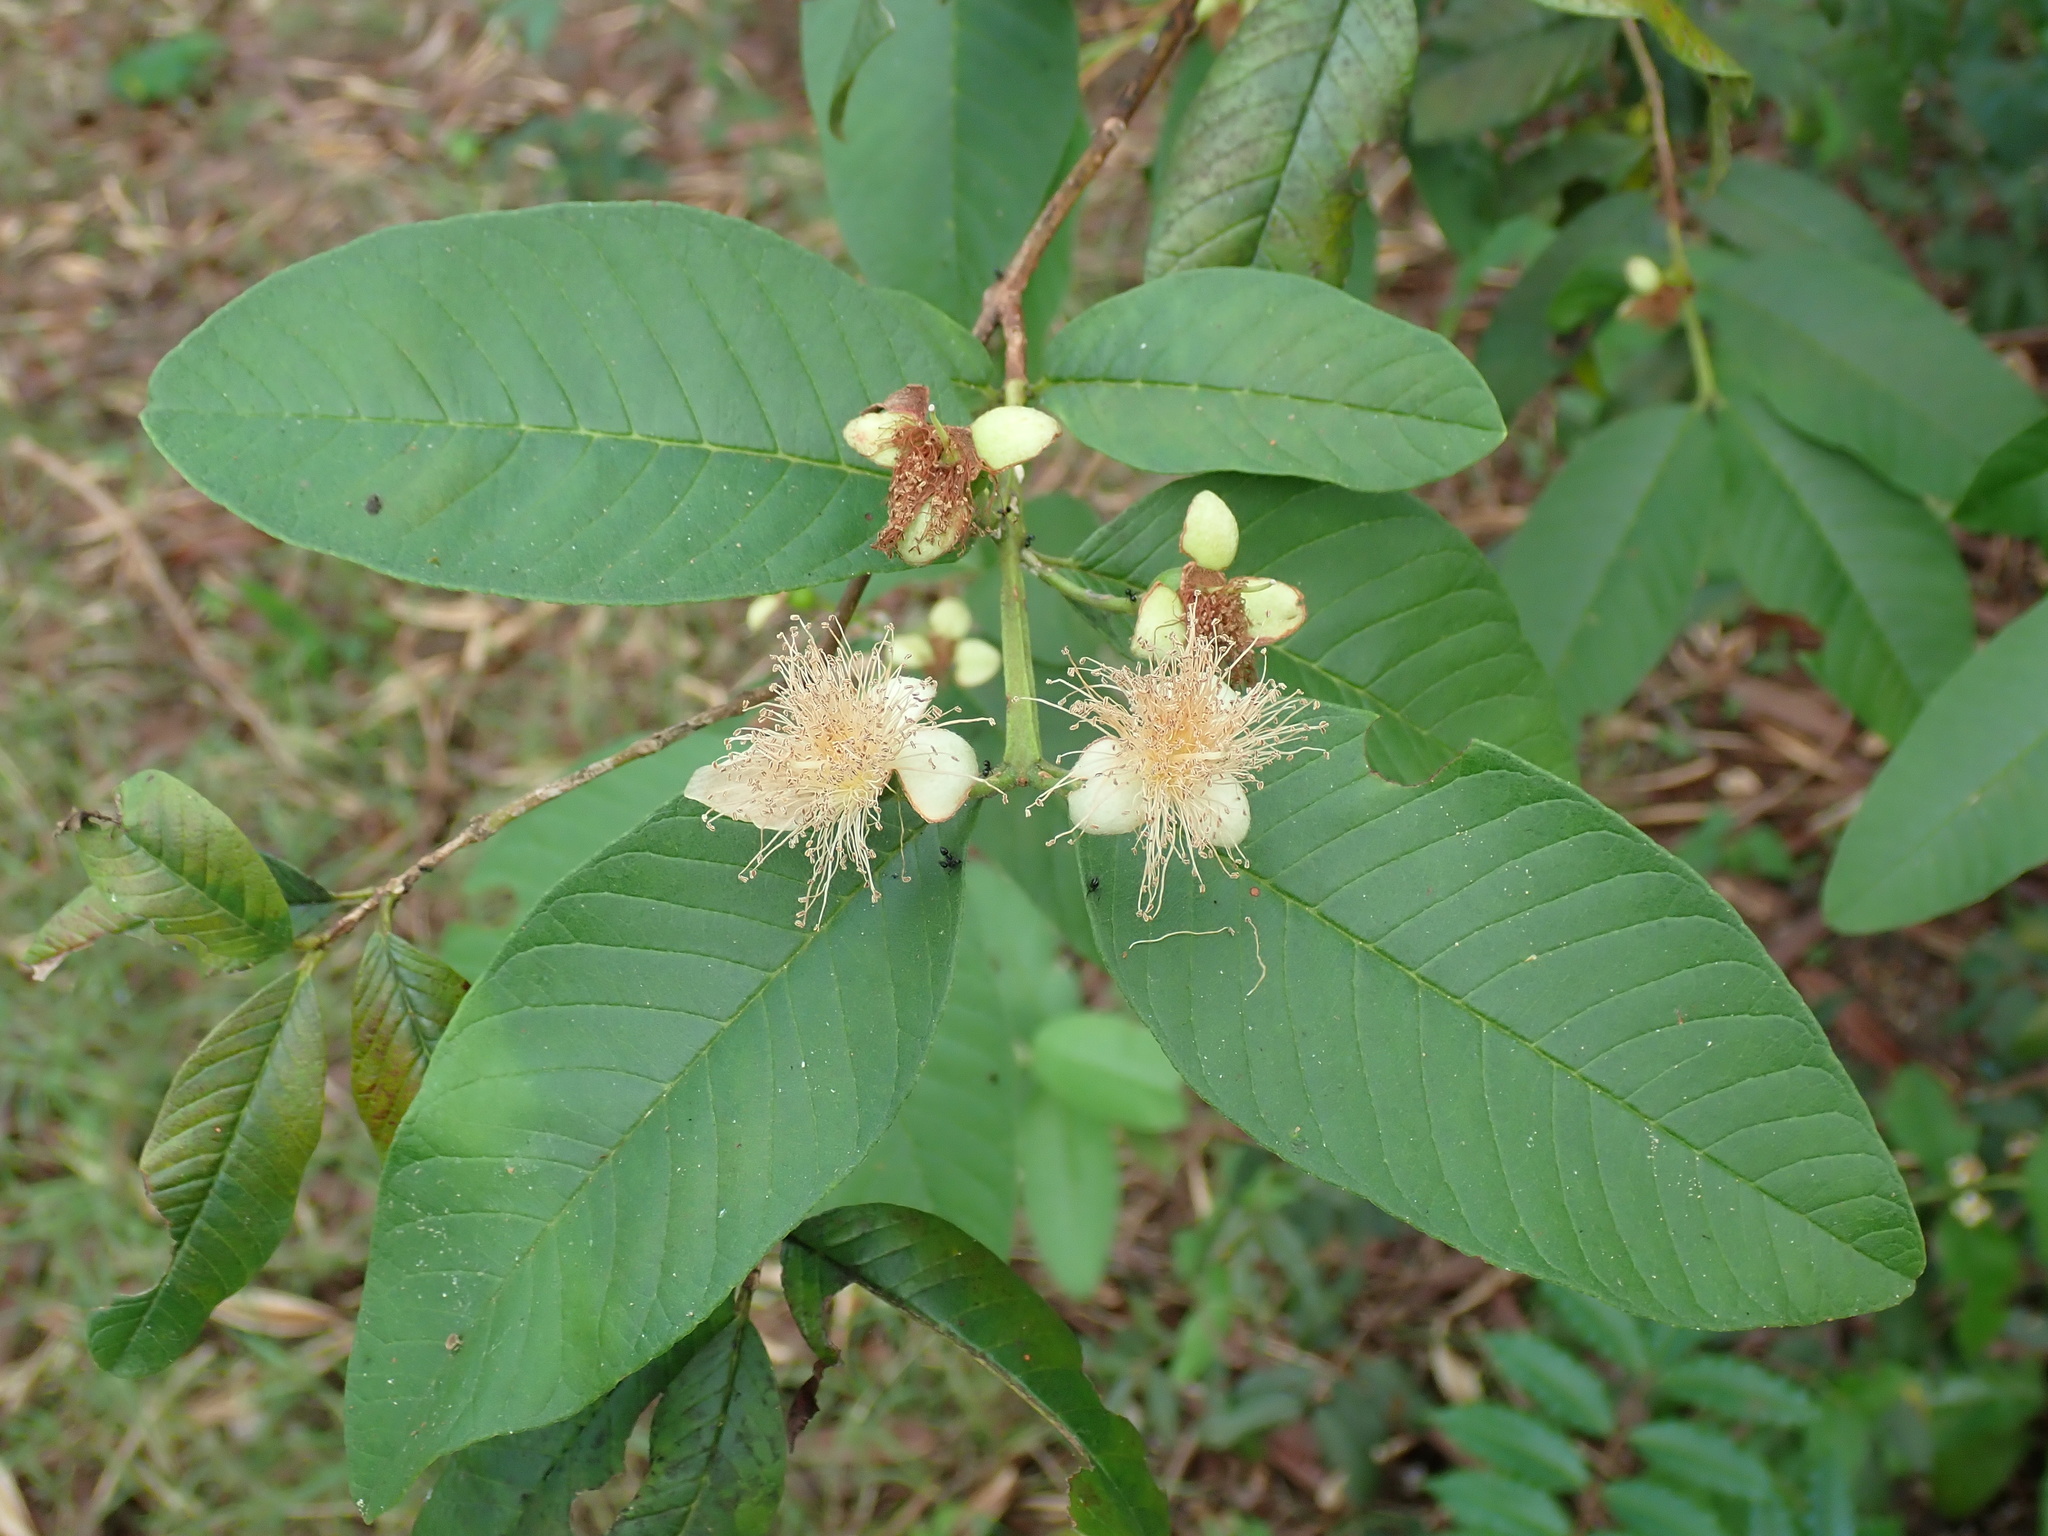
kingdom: Plantae
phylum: Tracheophyta
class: Magnoliopsida
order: Myrtales
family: Myrtaceae
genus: Psidium
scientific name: Psidium guajava
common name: Guava
